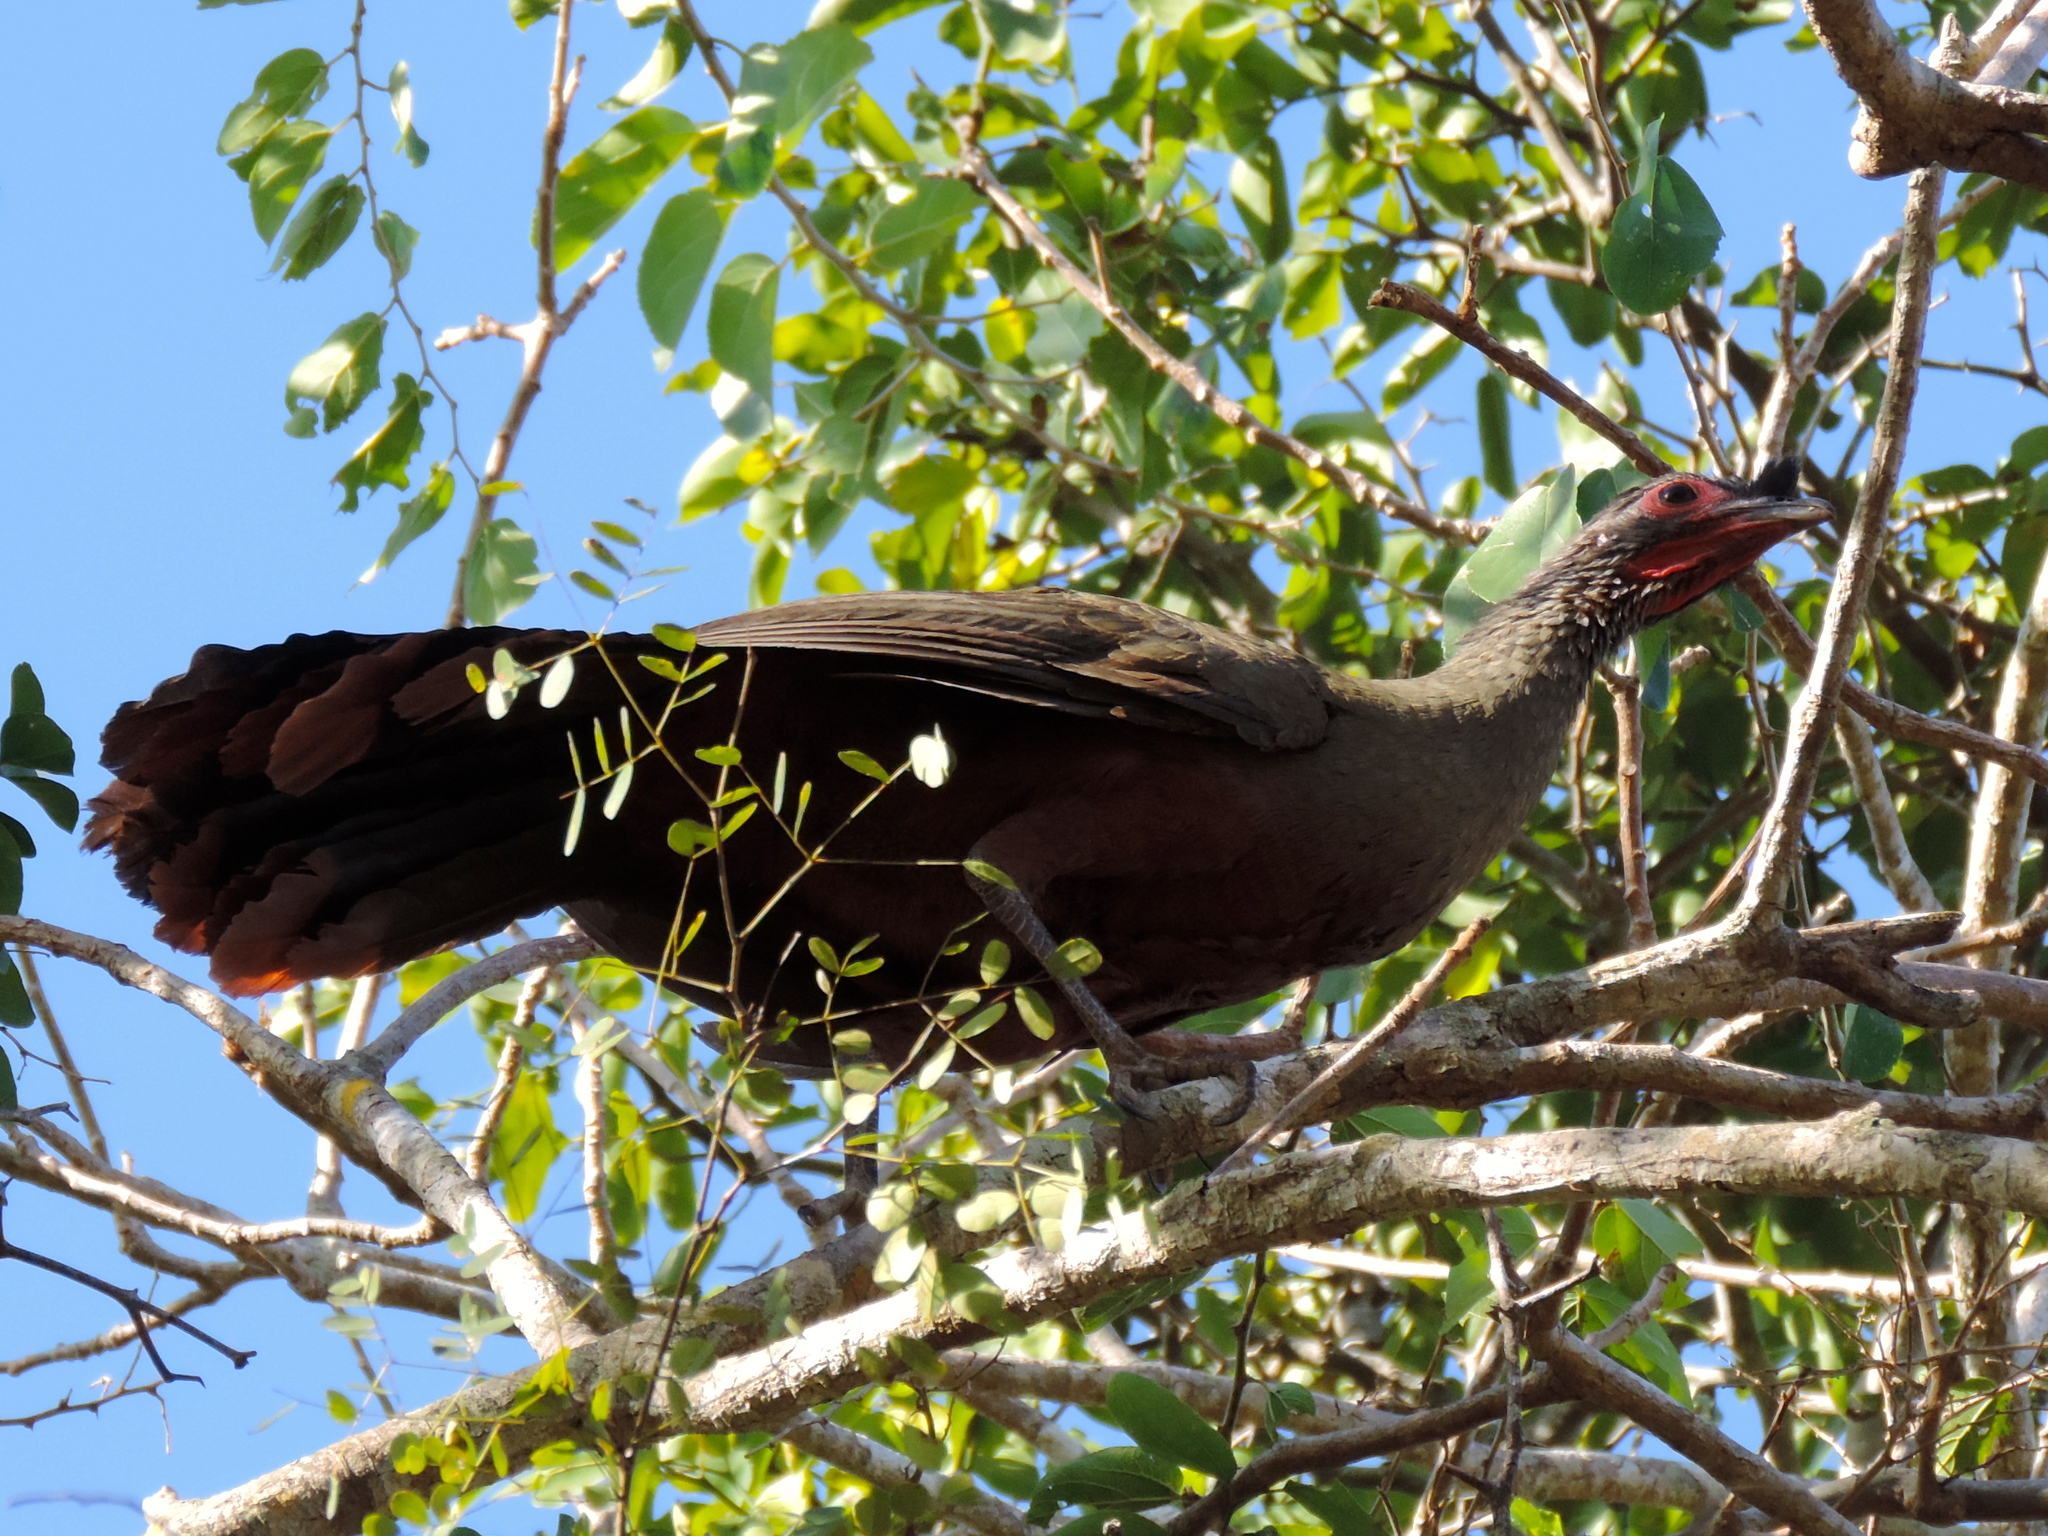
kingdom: Animalia
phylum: Chordata
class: Aves
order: Galliformes
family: Cracidae
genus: Ortalis
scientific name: Ortalis wagleri
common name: Rufous-bellied chachalaca
